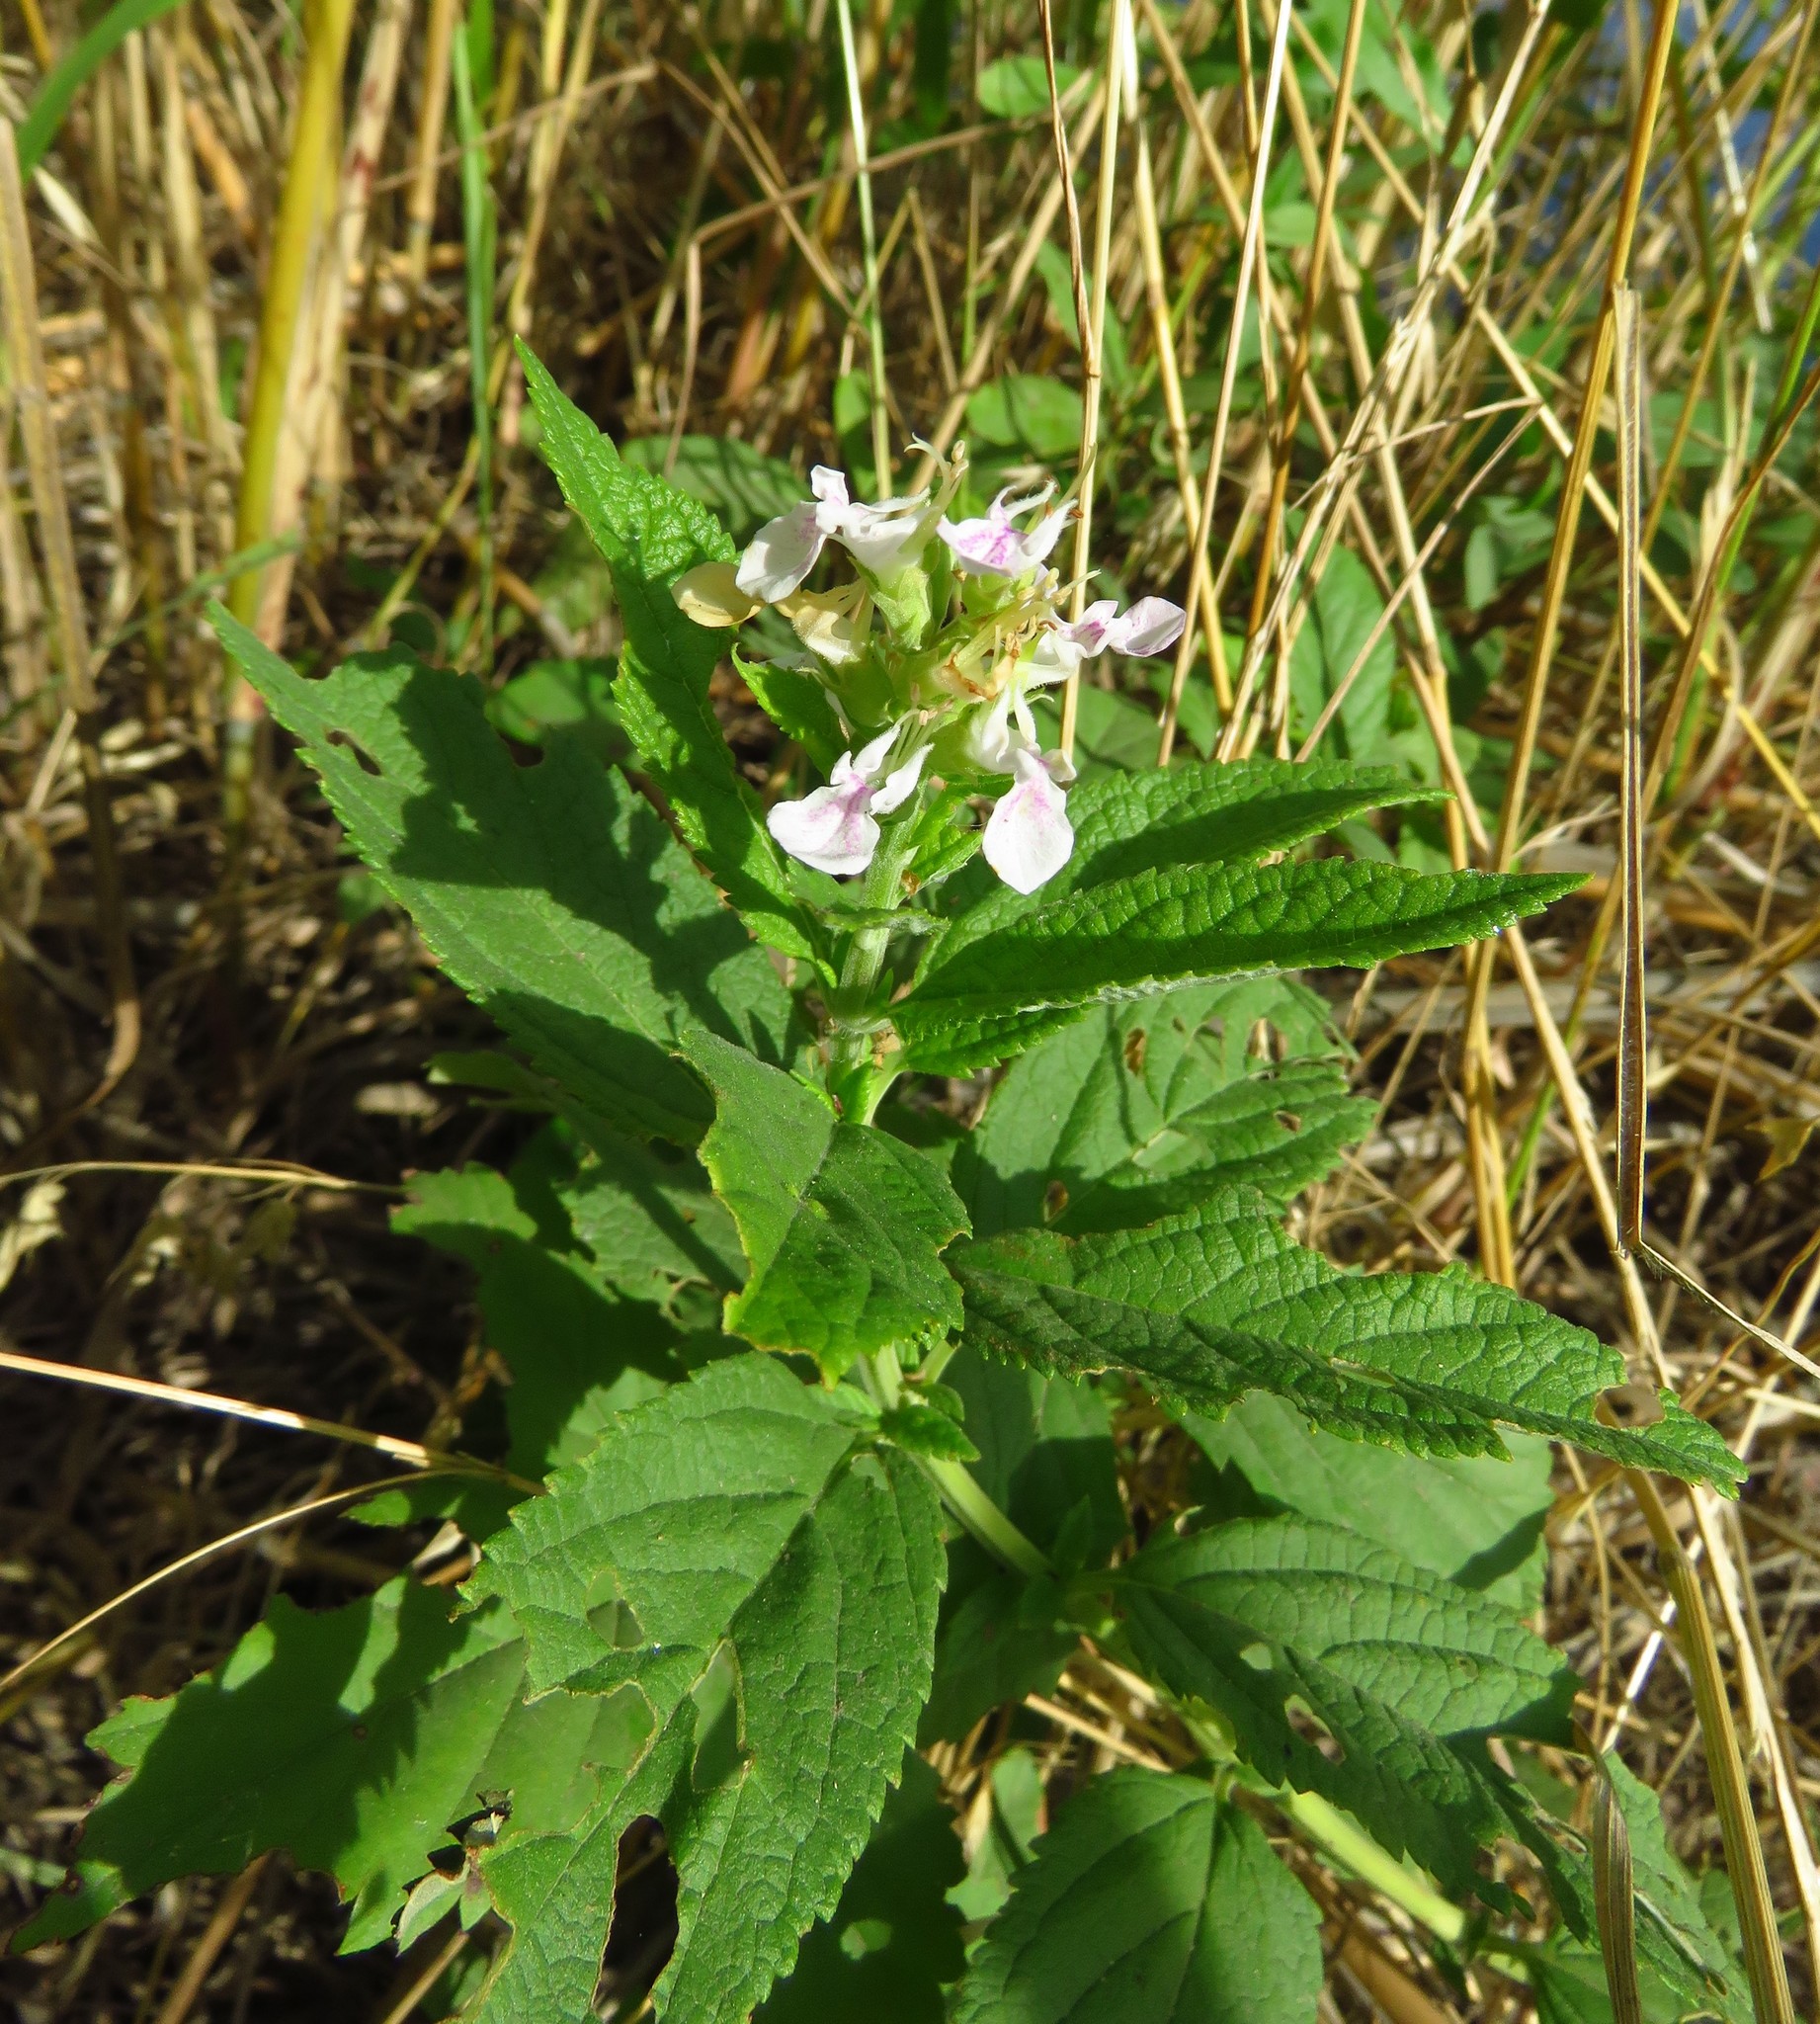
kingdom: Plantae
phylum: Tracheophyta
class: Magnoliopsida
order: Lamiales
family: Lamiaceae
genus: Teucrium
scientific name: Teucrium canadense
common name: American germander
